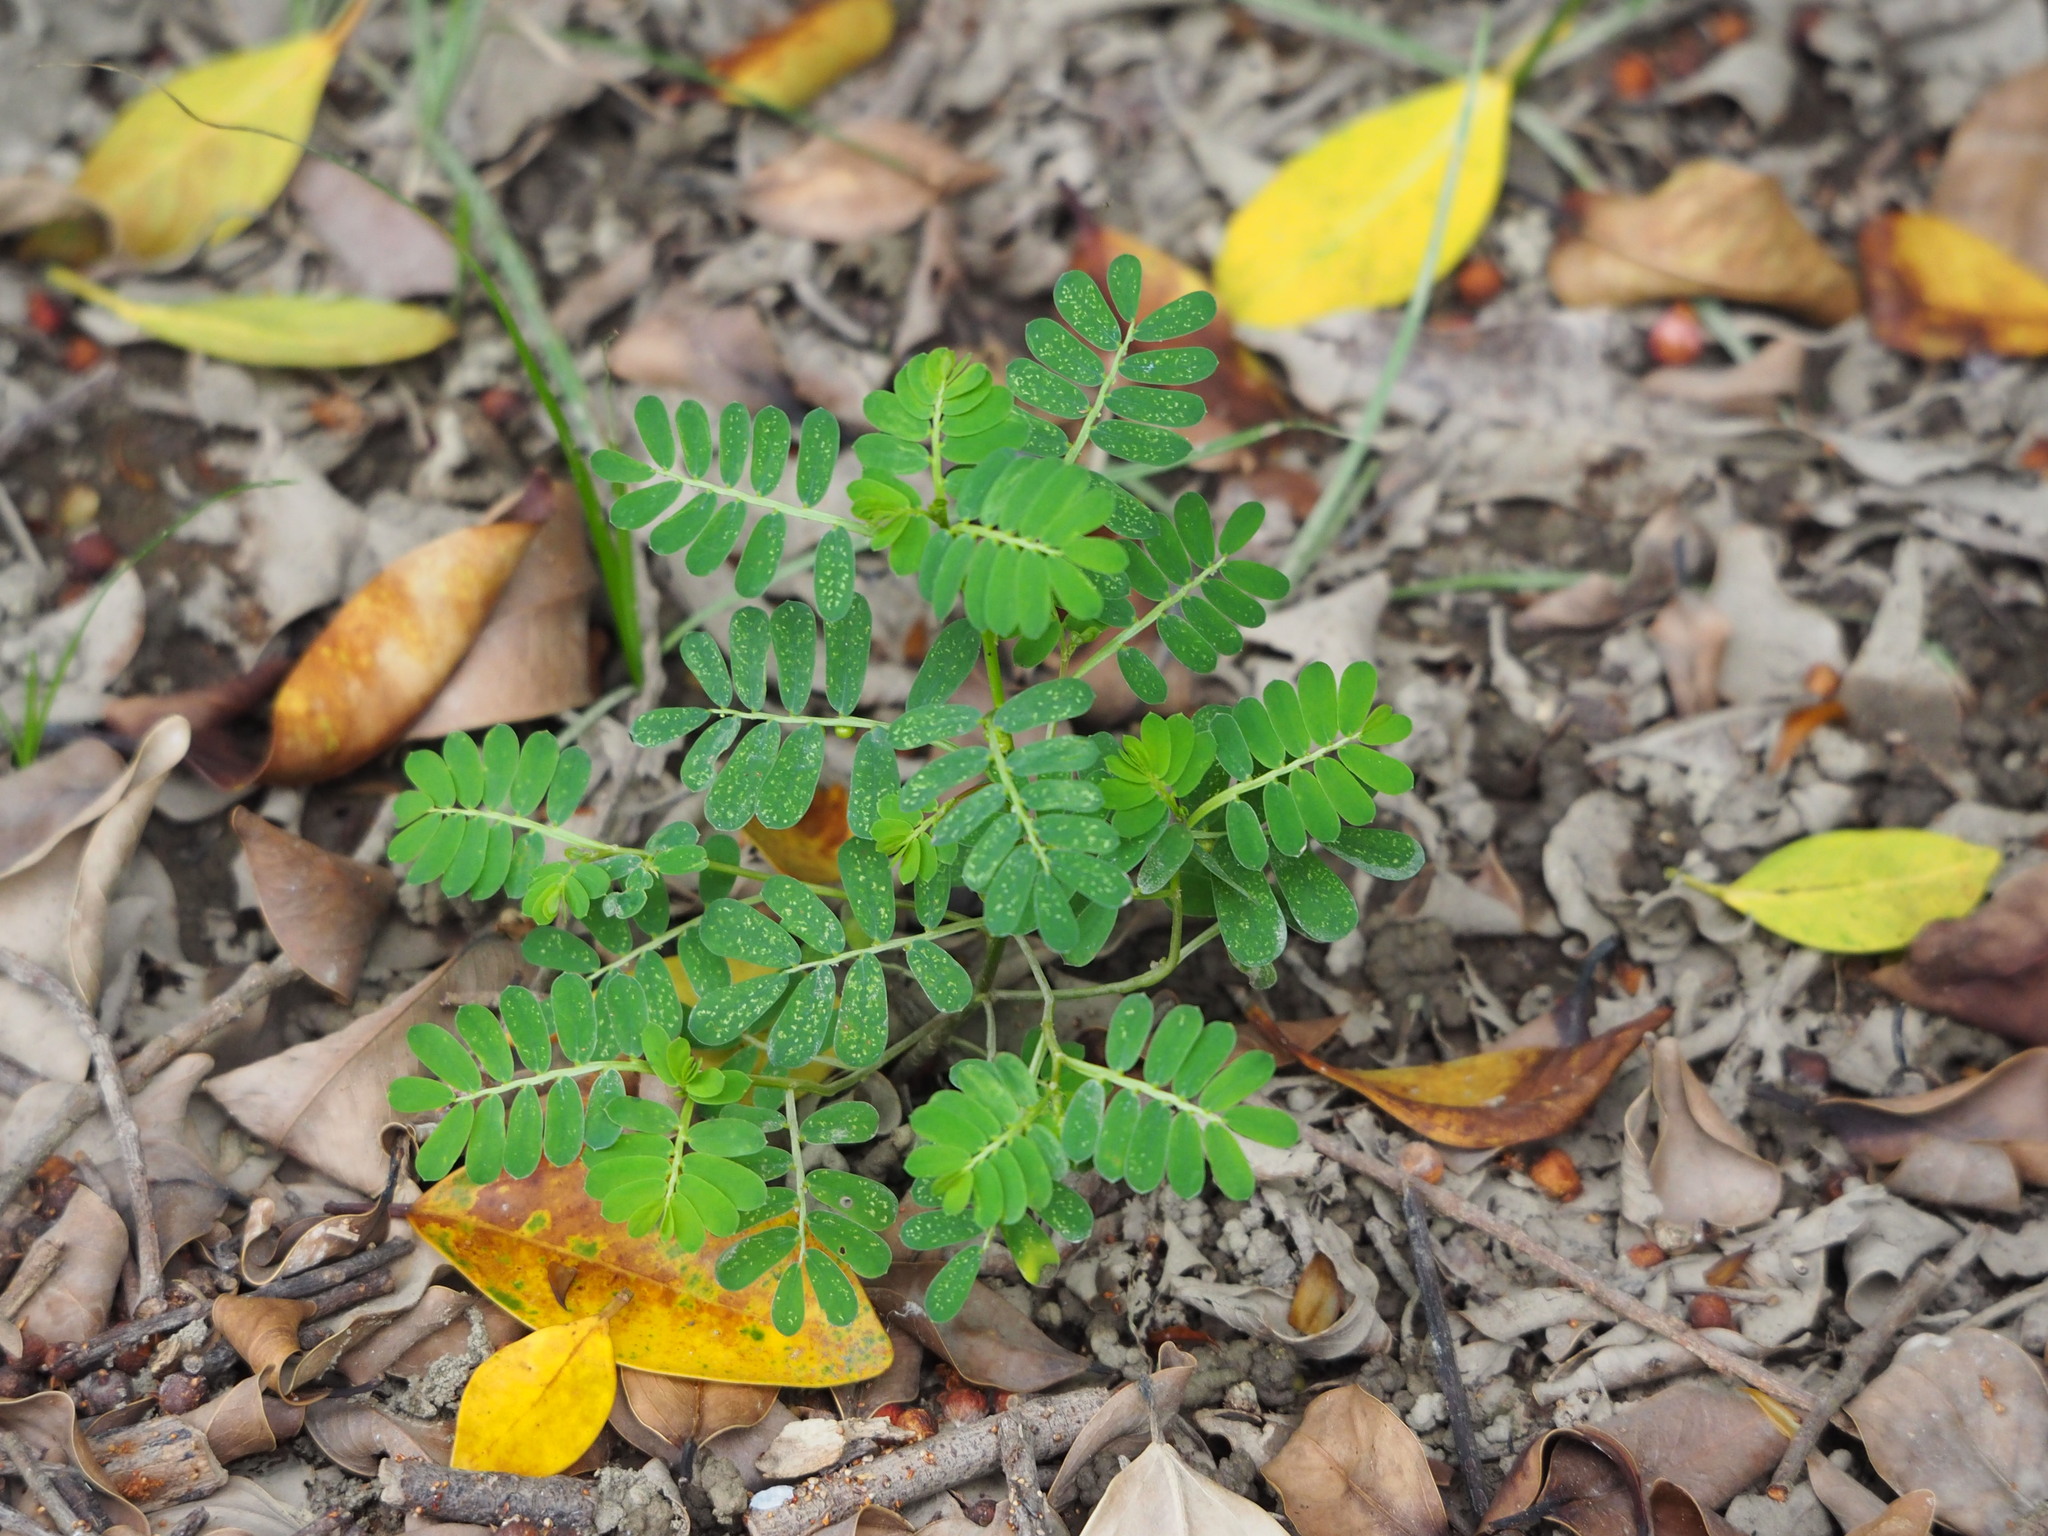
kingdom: Plantae
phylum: Tracheophyta
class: Magnoliopsida
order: Malpighiales
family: Phyllanthaceae
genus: Phyllanthus
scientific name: Phyllanthus urinaria
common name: Chamber bitter
